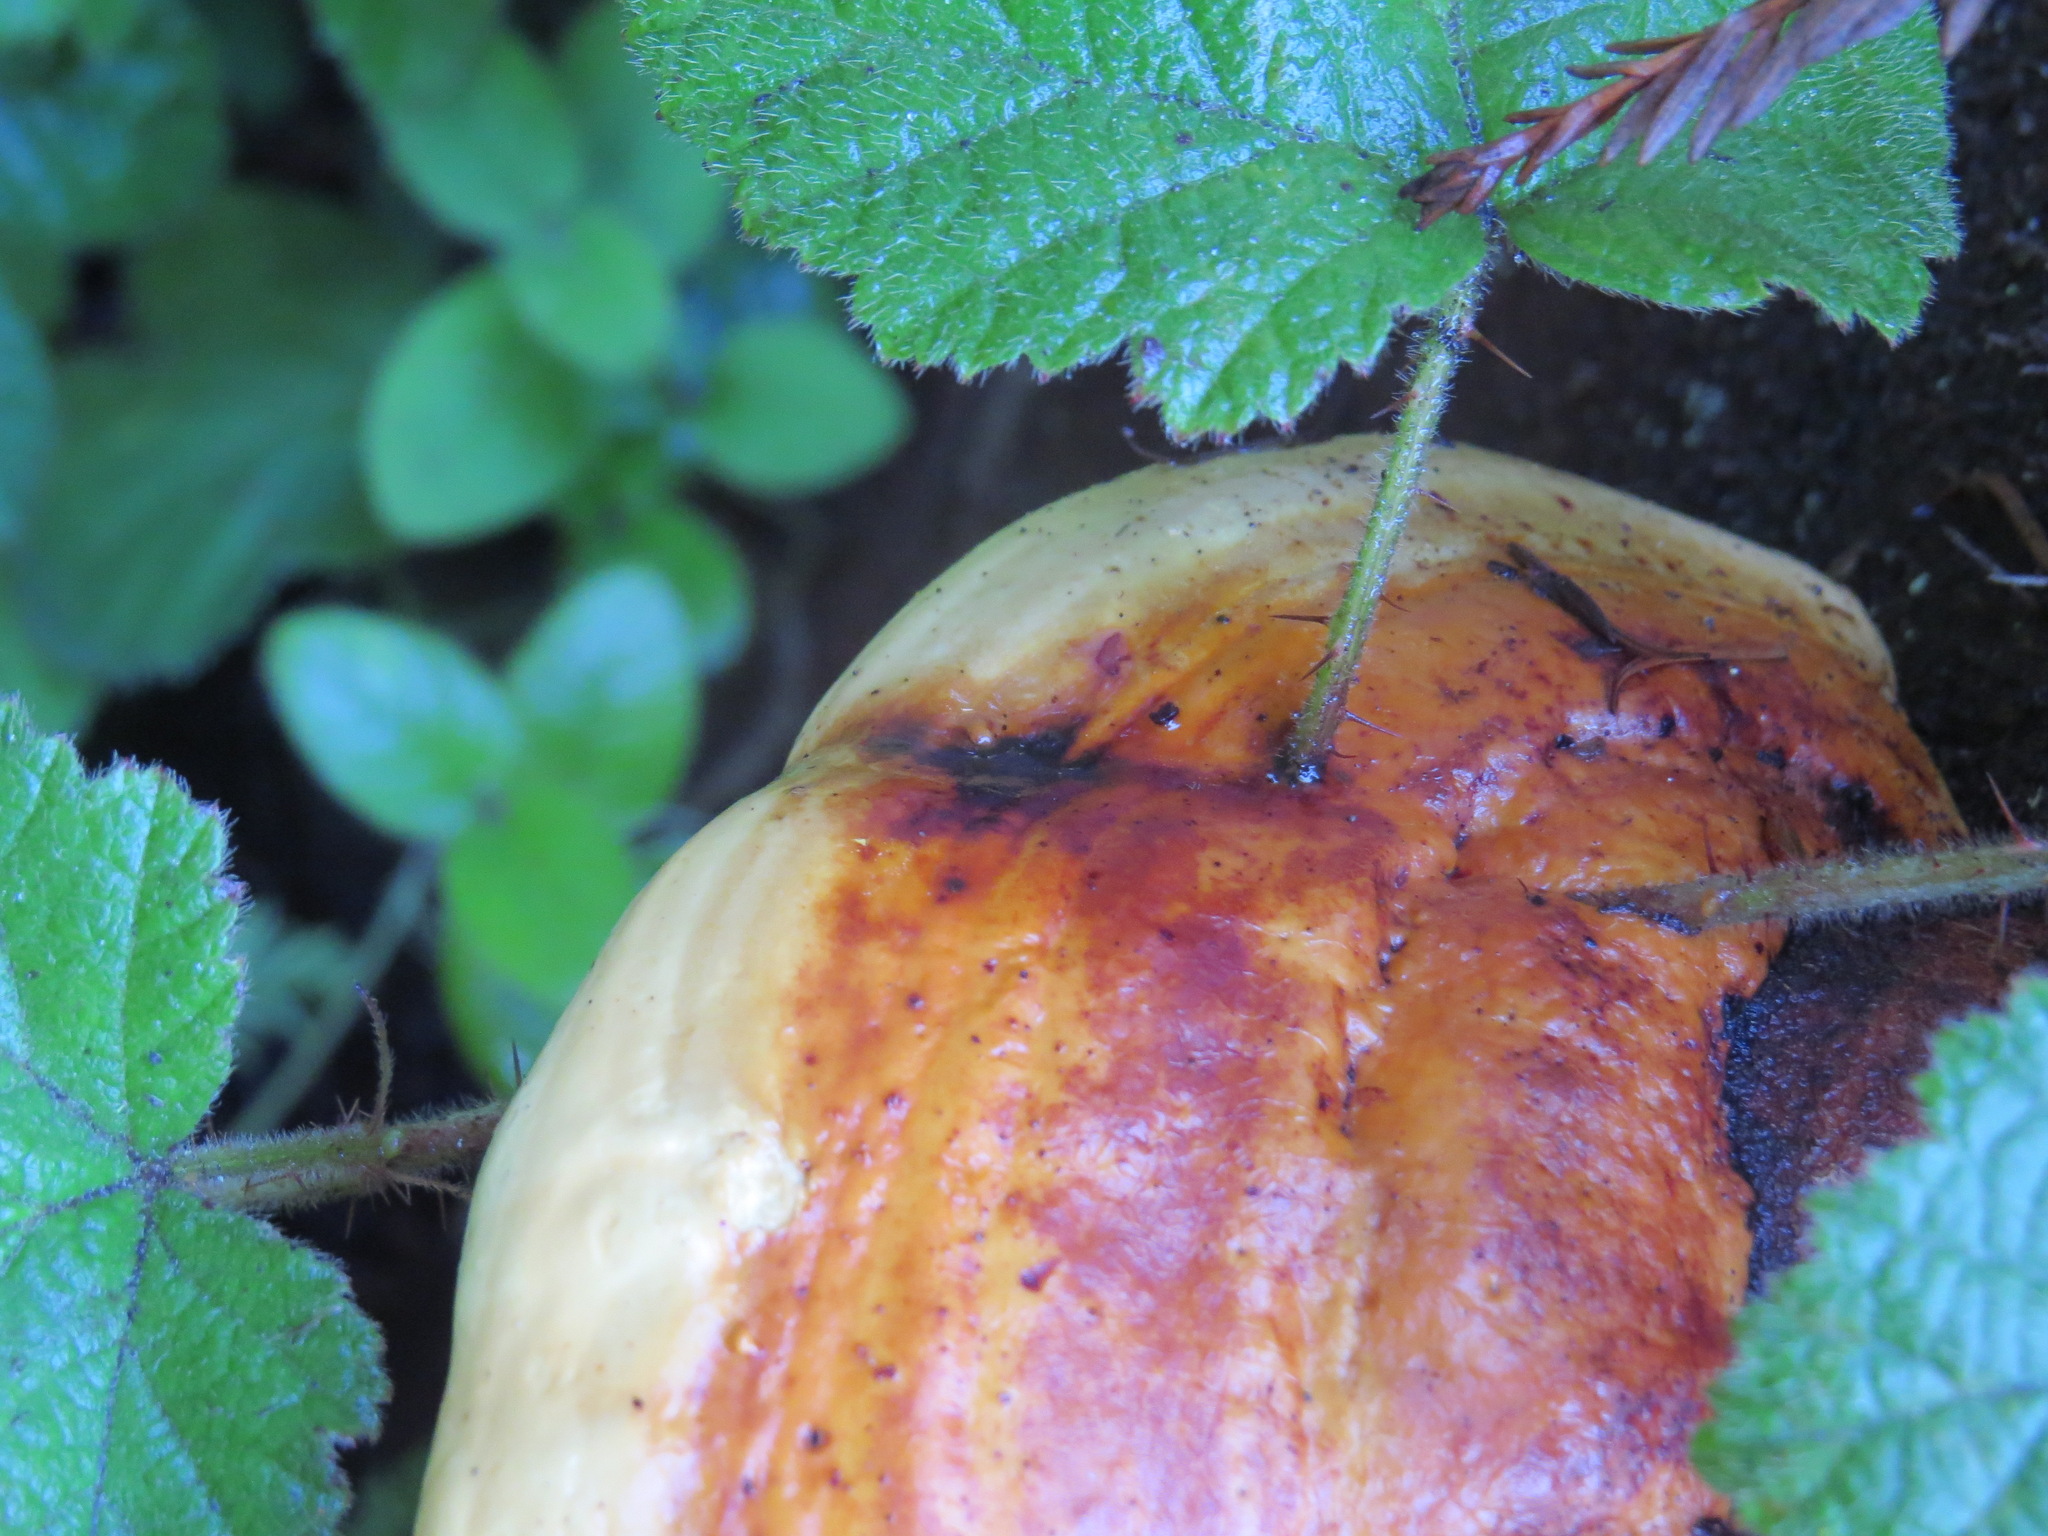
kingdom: Fungi
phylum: Basidiomycota
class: Agaricomycetes
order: Polyporales
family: Fomitopsidaceae
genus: Fomitopsis
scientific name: Fomitopsis mounceae
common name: Northern red belt
